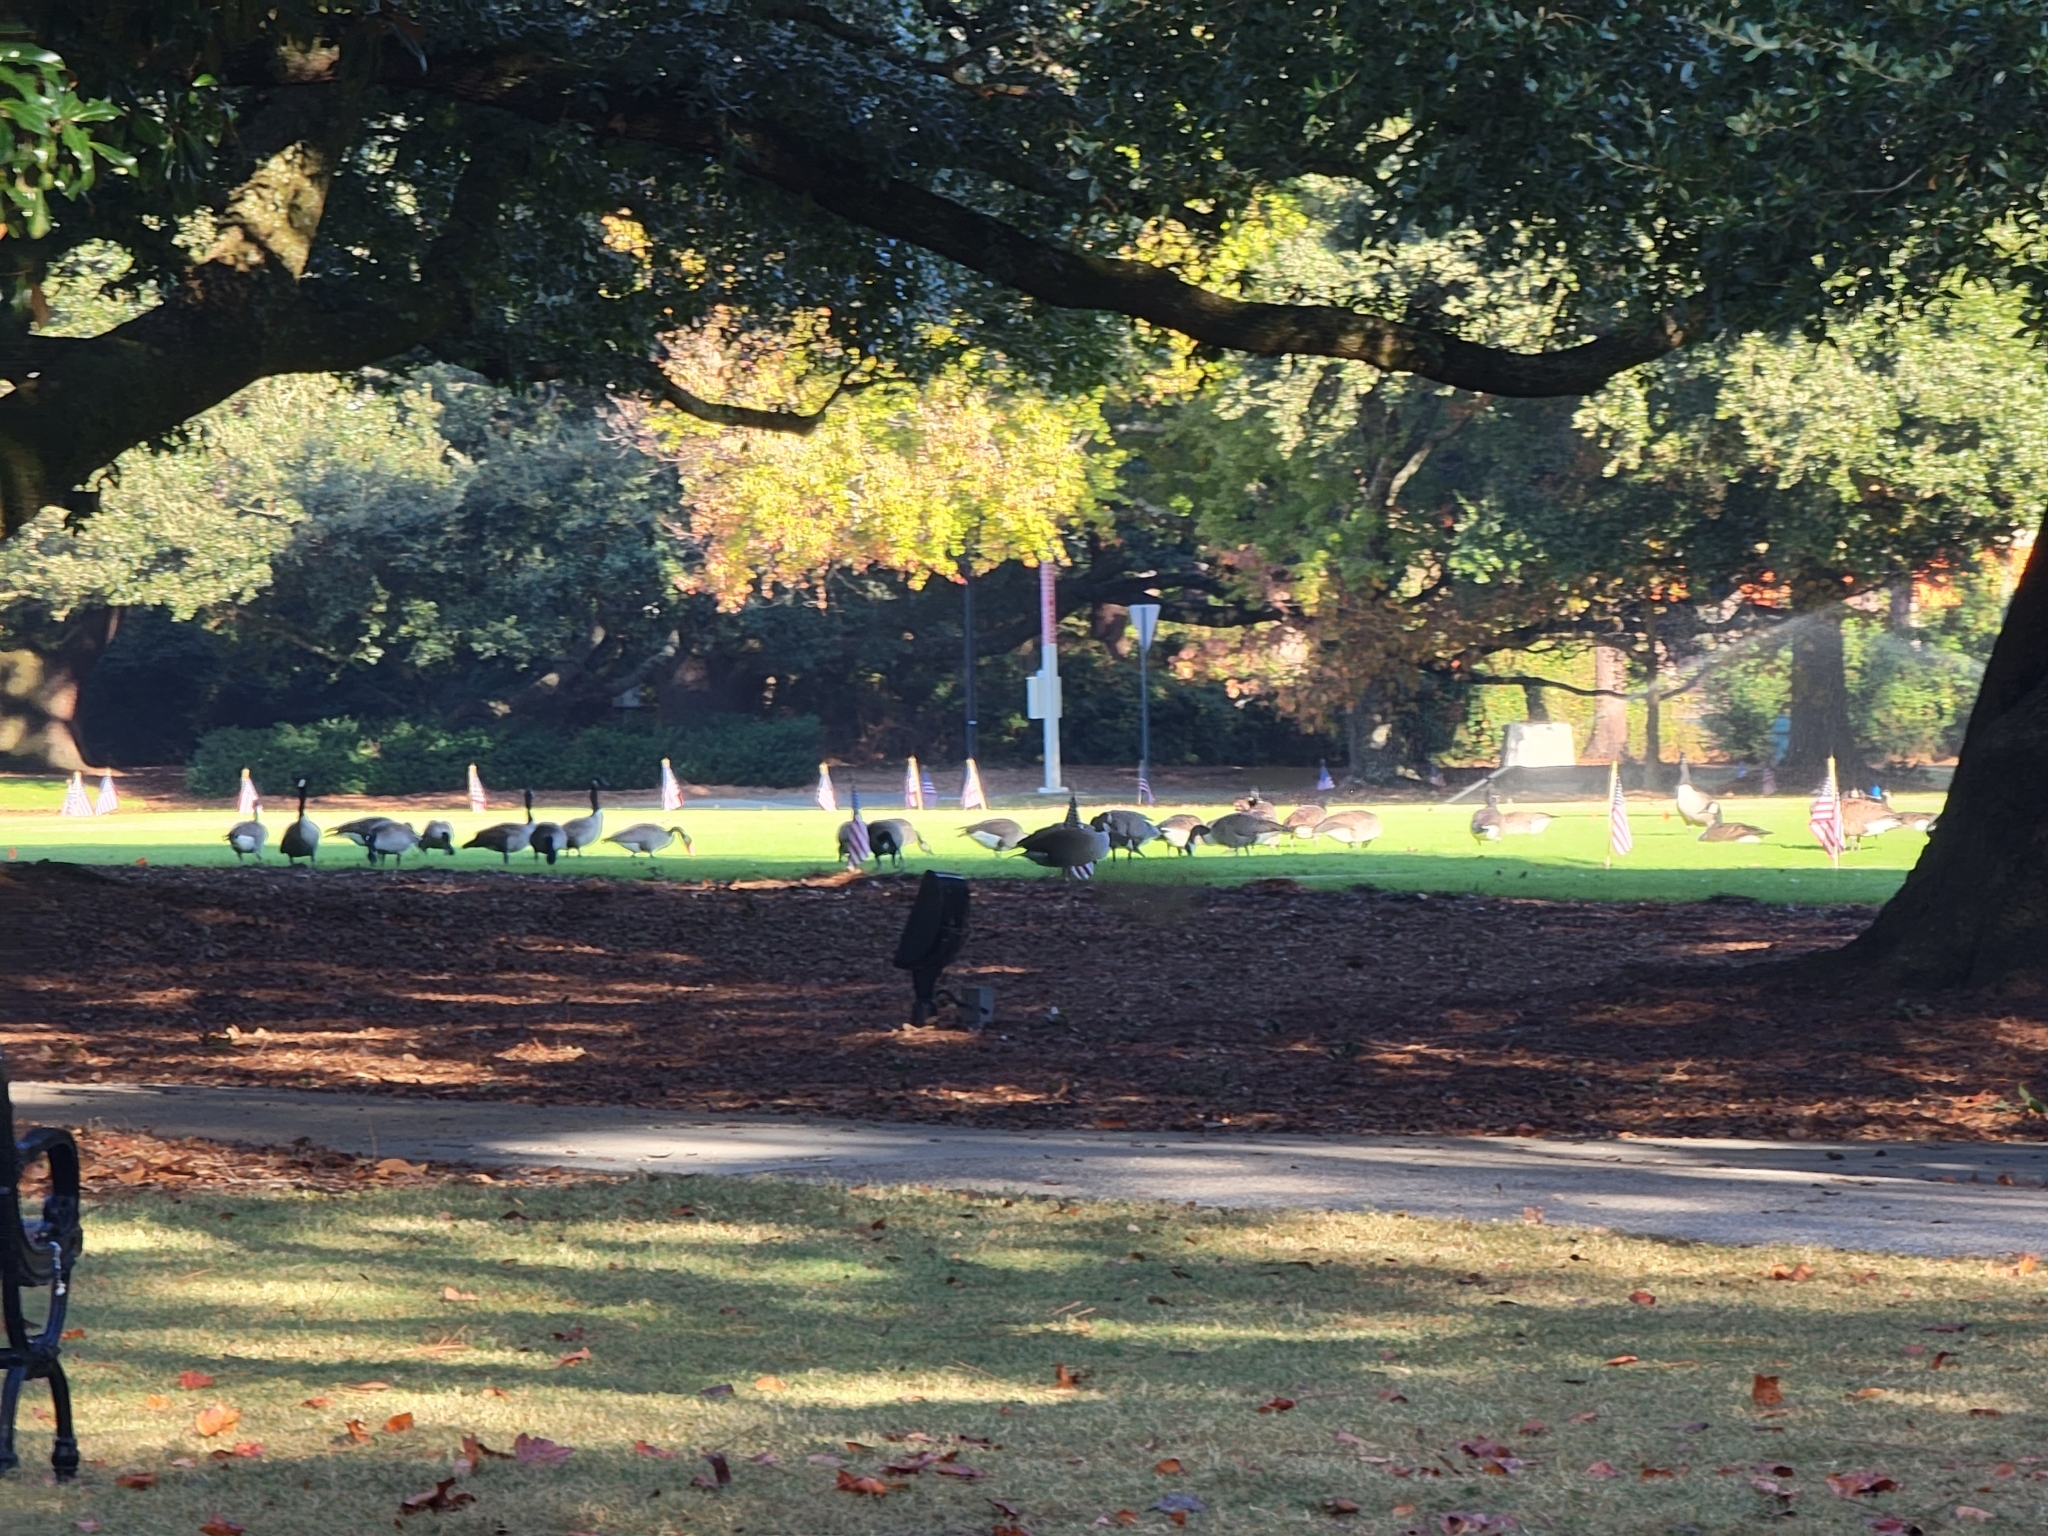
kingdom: Animalia
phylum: Chordata
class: Aves
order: Anseriformes
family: Anatidae
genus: Branta
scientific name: Branta canadensis
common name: Canada goose
